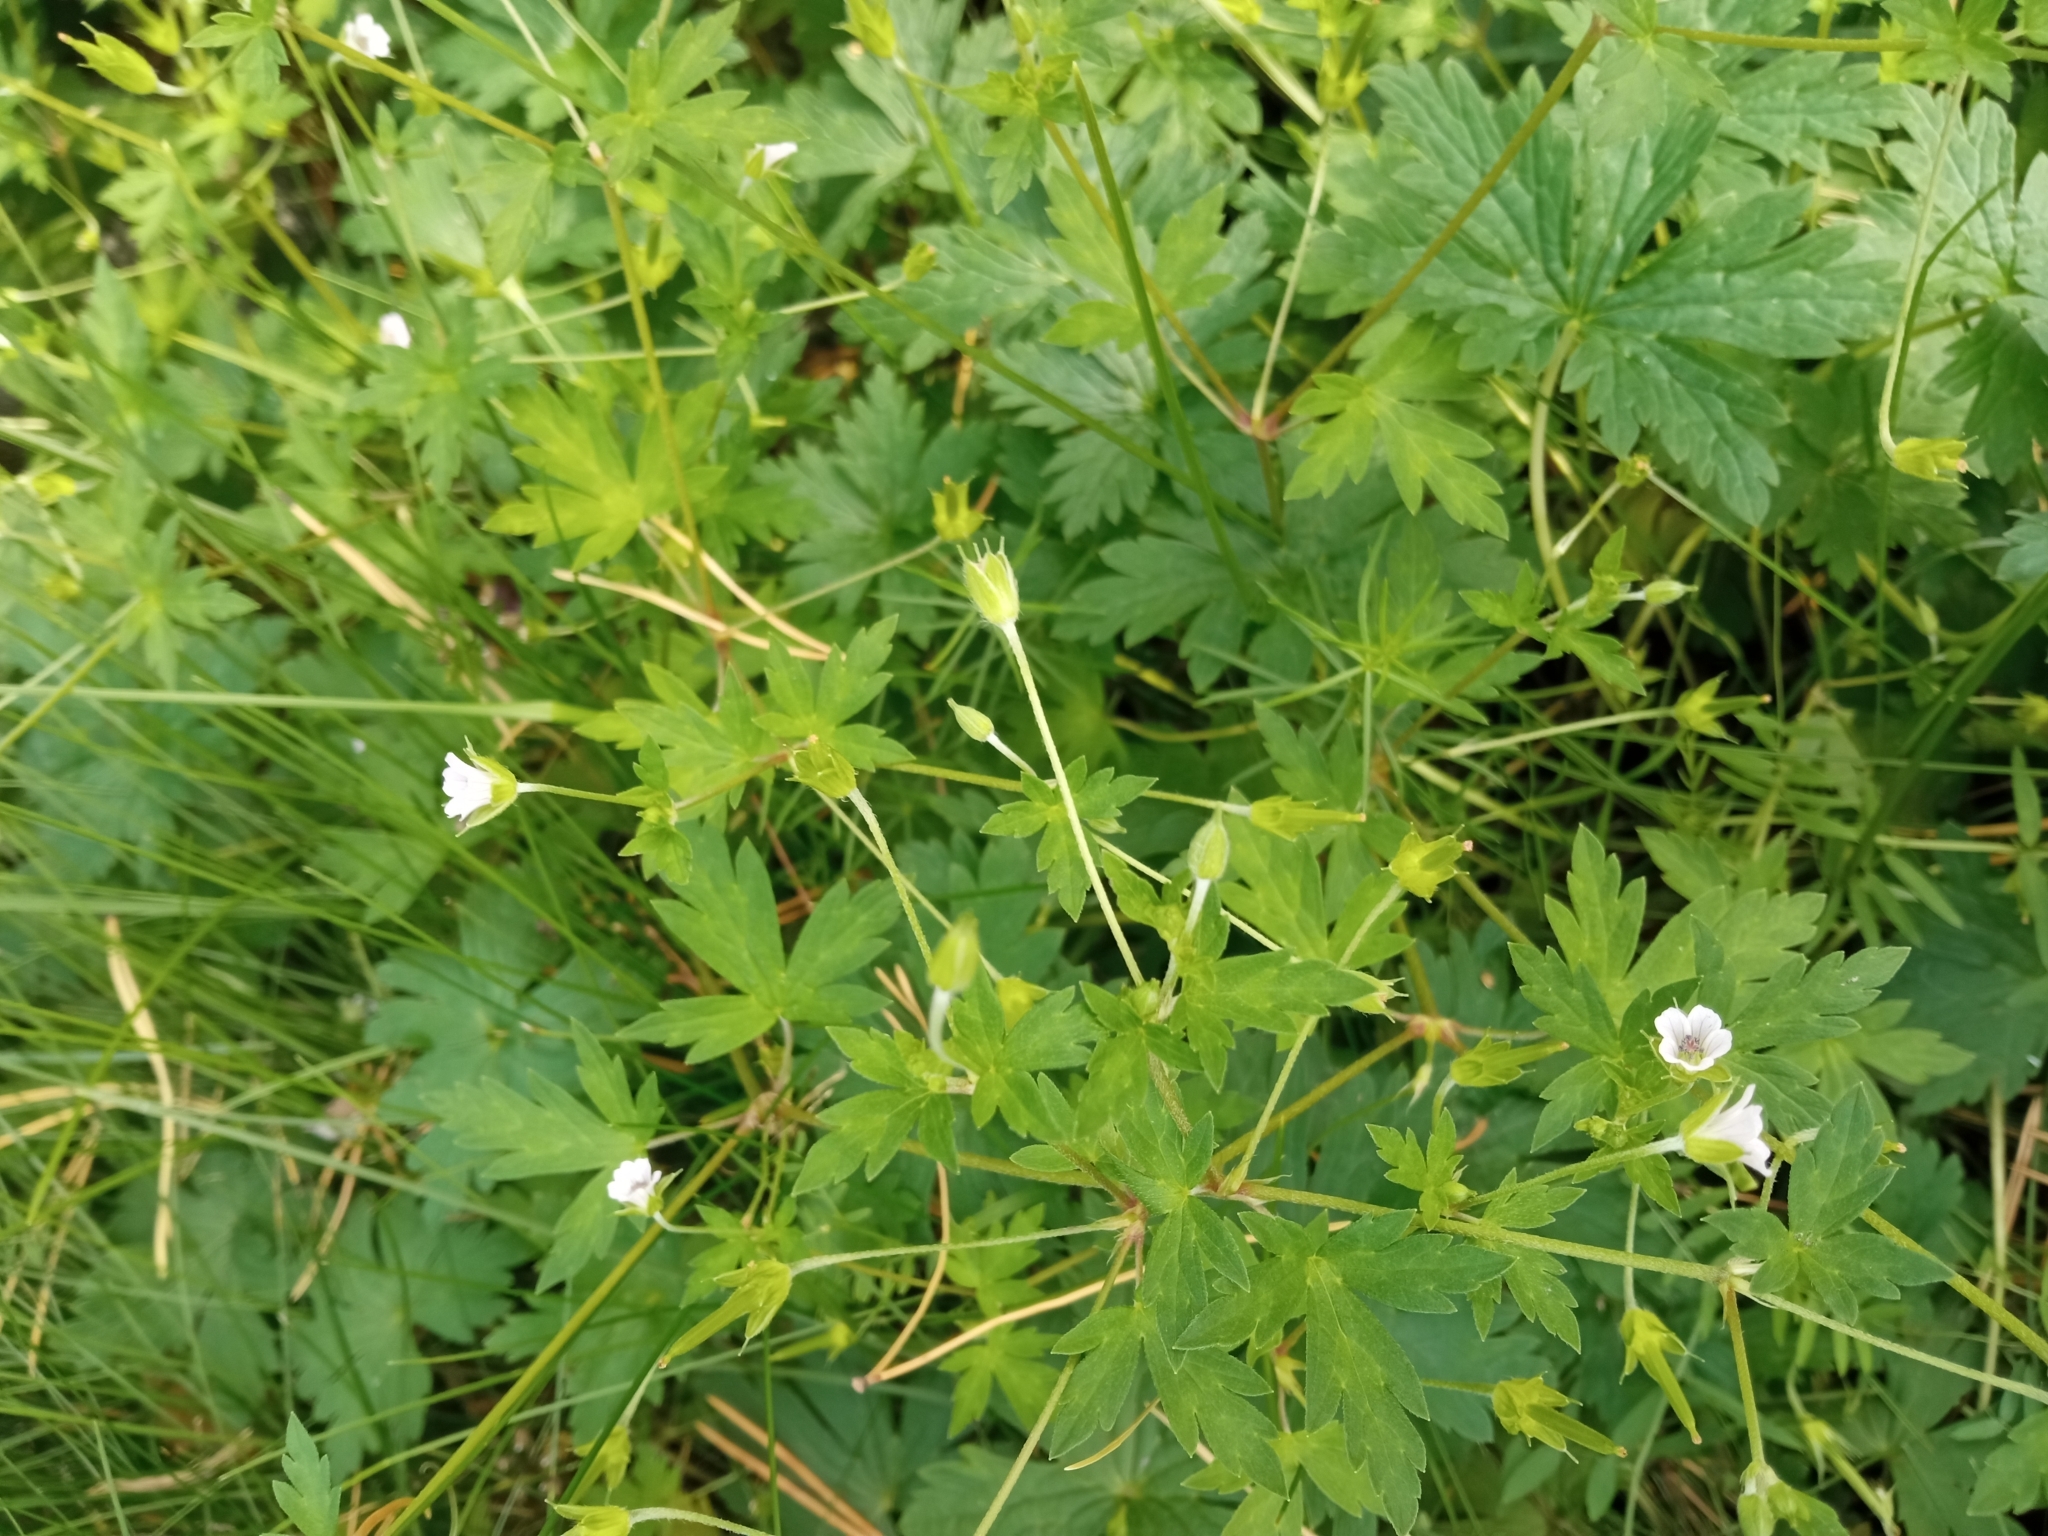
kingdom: Plantae
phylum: Tracheophyta
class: Magnoliopsida
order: Geraniales
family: Geraniaceae
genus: Geranium
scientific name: Geranium sibiricum
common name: Siberian crane's-bill
